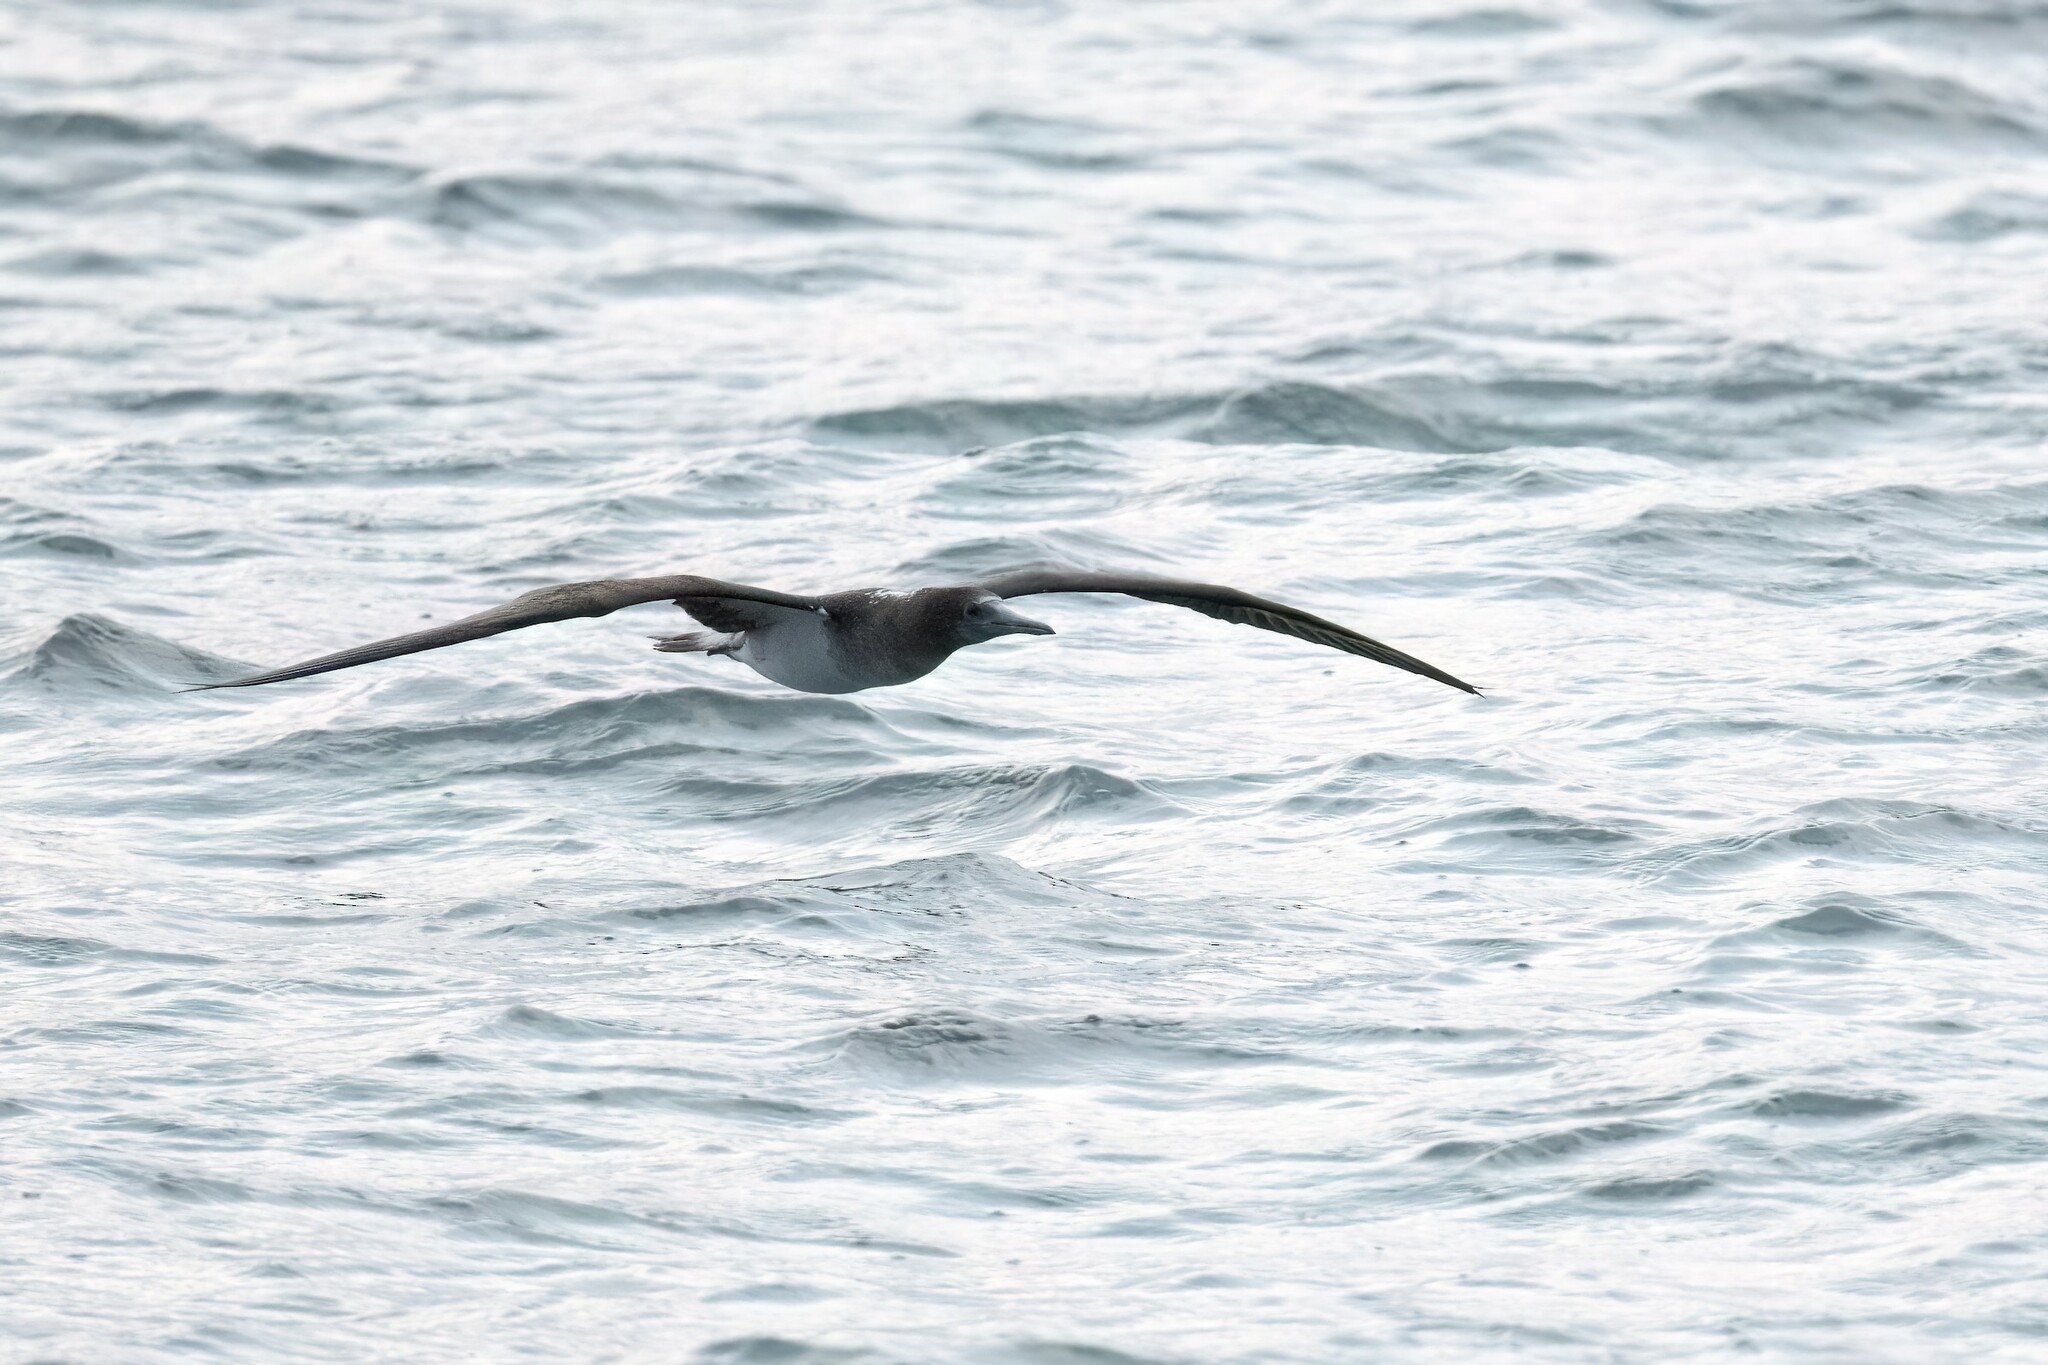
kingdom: Animalia
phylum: Chordata
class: Aves
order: Suliformes
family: Sulidae
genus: Sula
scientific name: Sula nebouxii
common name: Blue-footed booby
